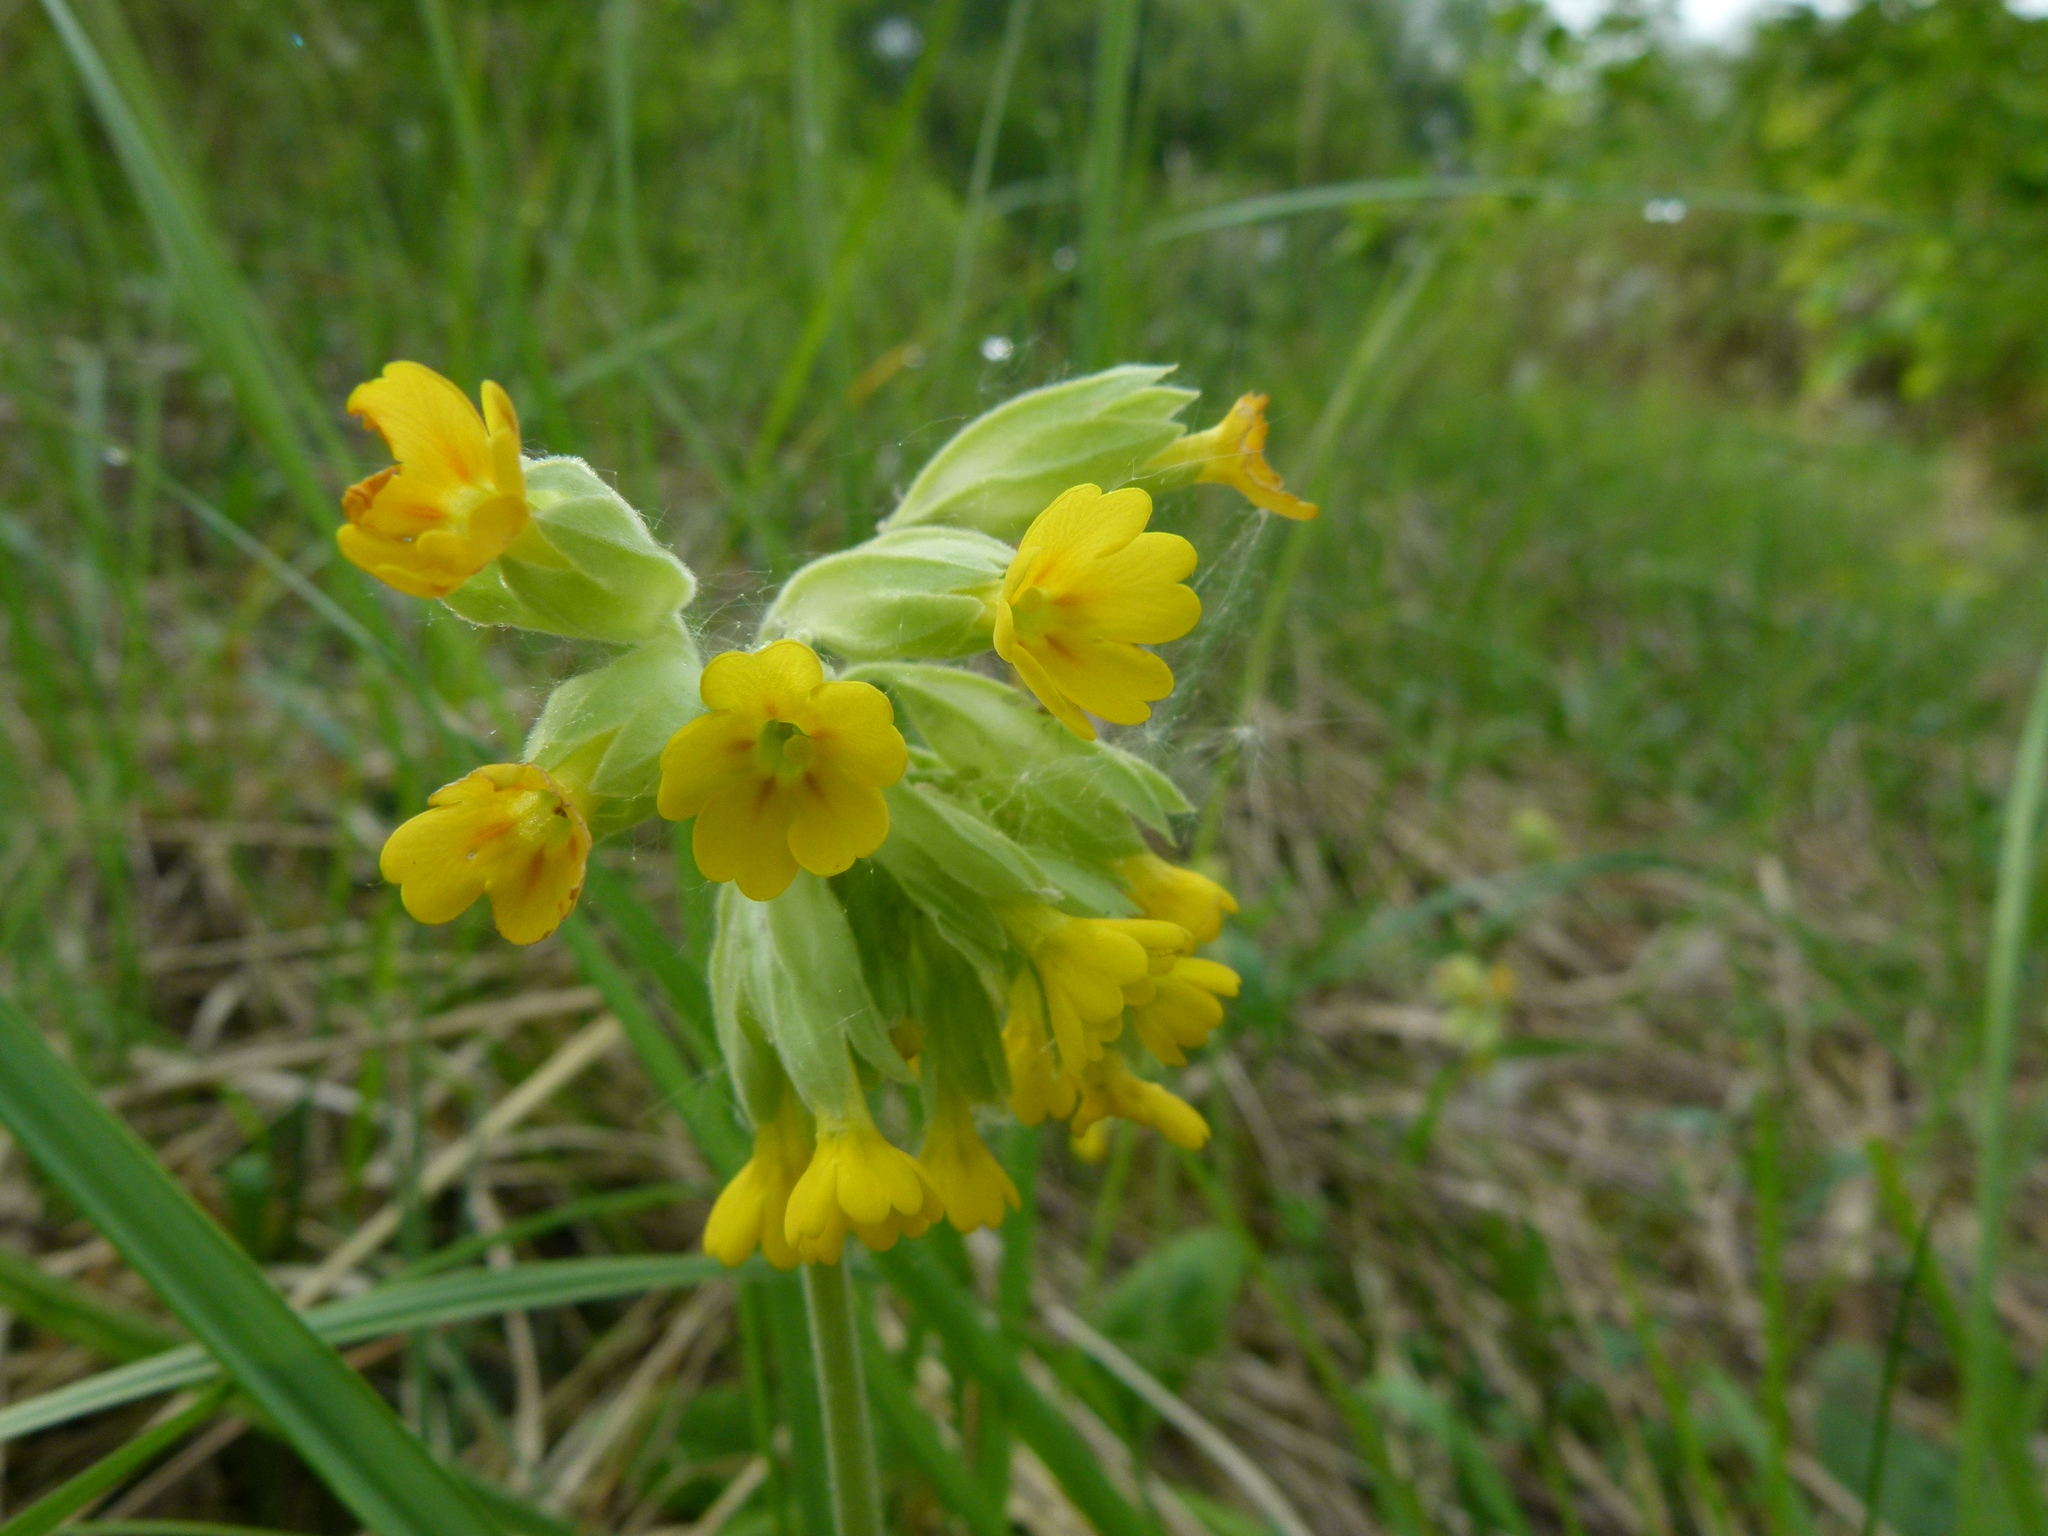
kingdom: Plantae
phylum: Tracheophyta
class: Magnoliopsida
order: Ericales
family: Primulaceae
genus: Primula
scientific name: Primula veris
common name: Cowslip
